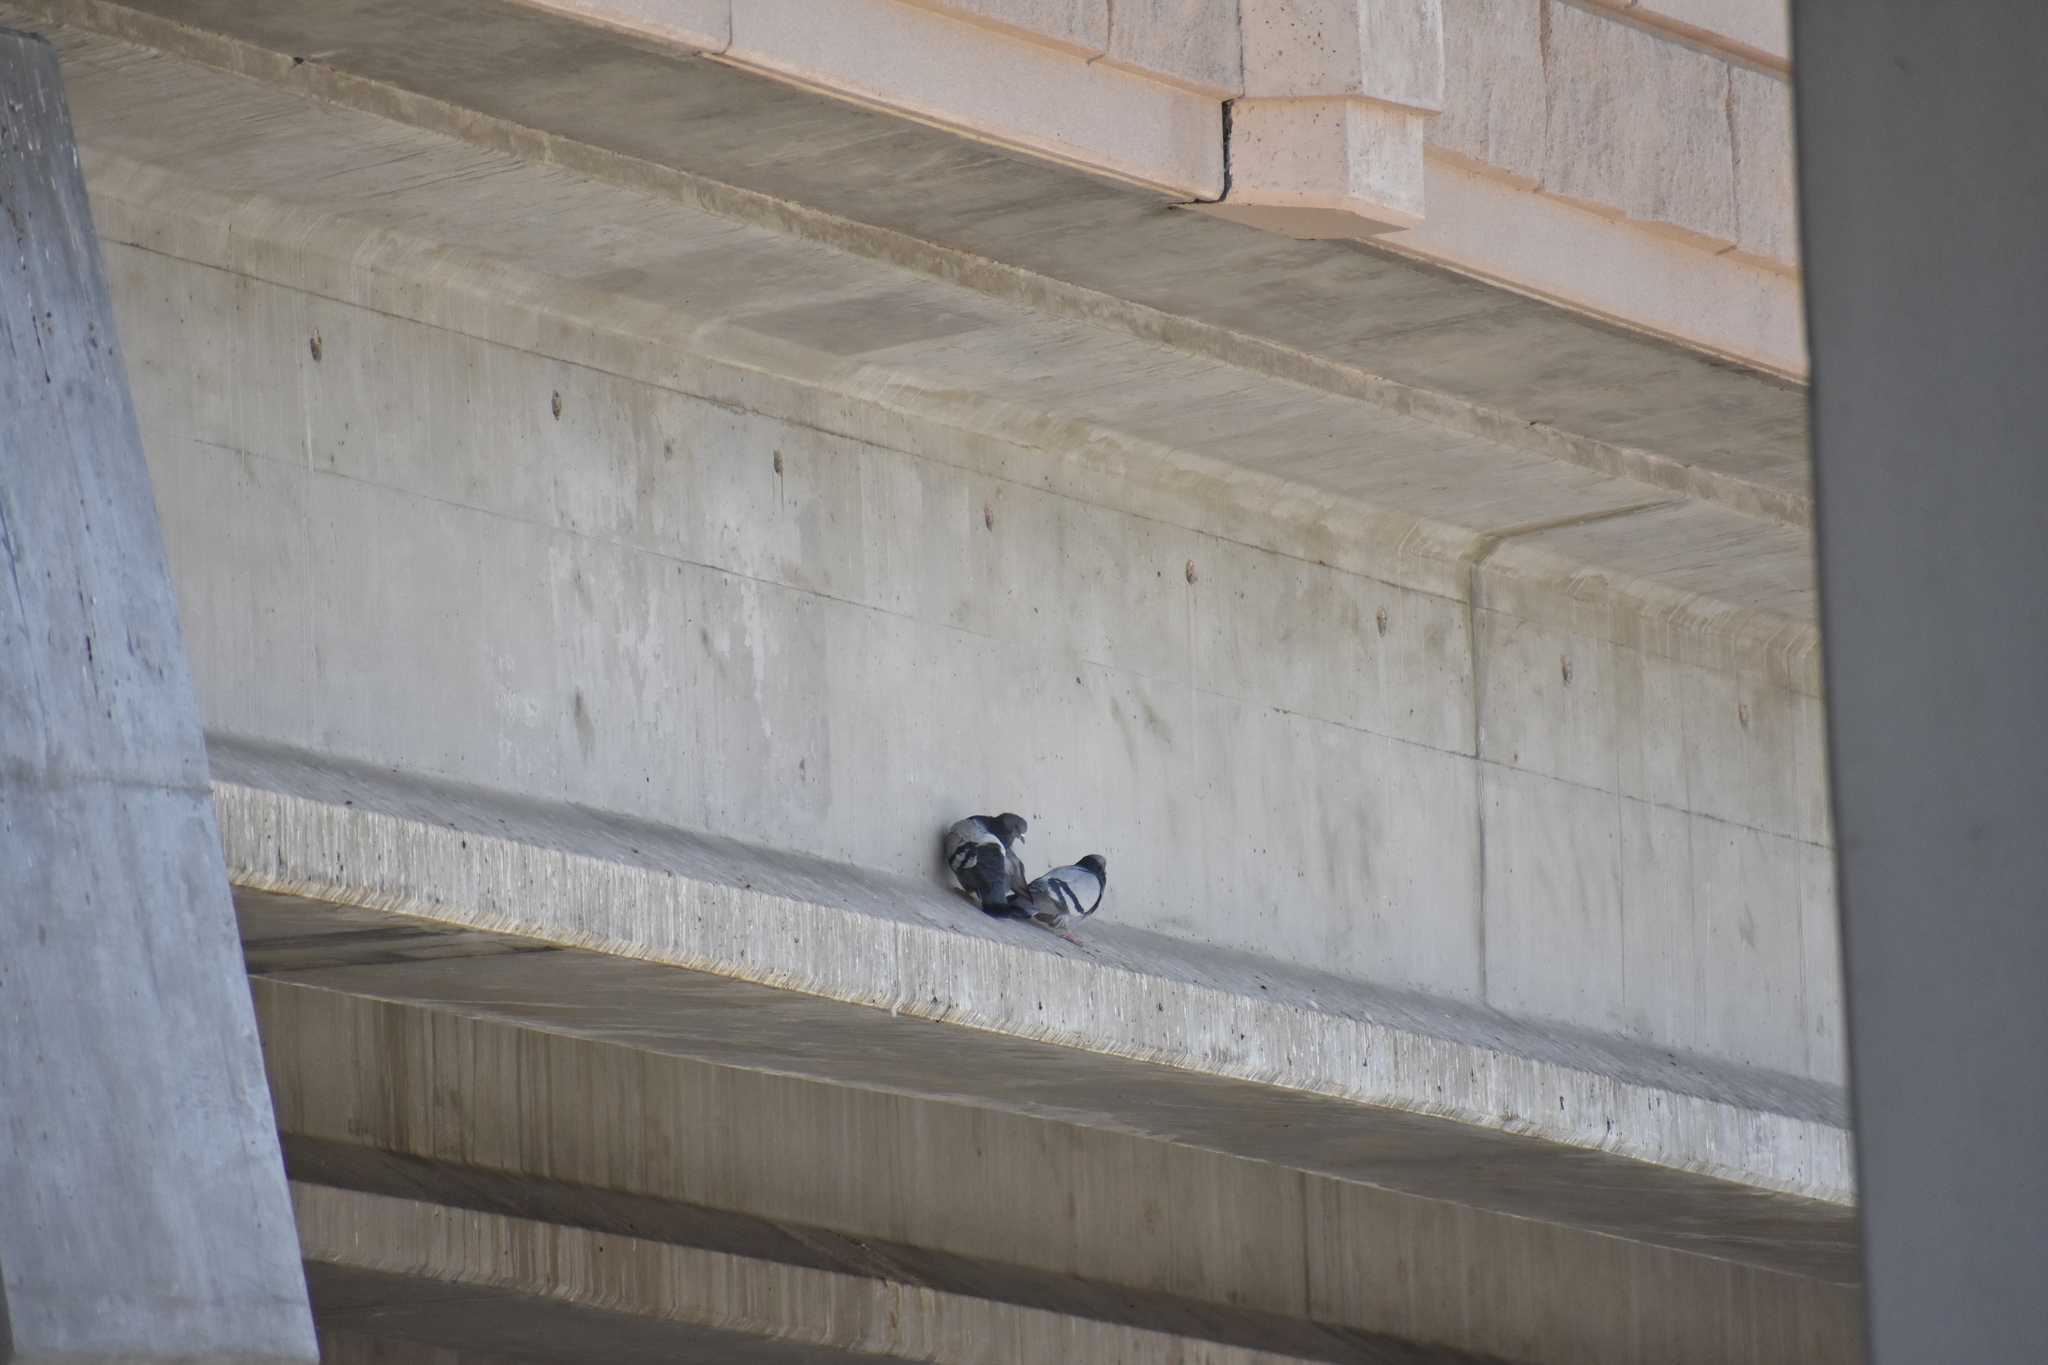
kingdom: Animalia
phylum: Chordata
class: Aves
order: Columbiformes
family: Columbidae
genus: Columba
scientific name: Columba livia
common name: Rock pigeon
